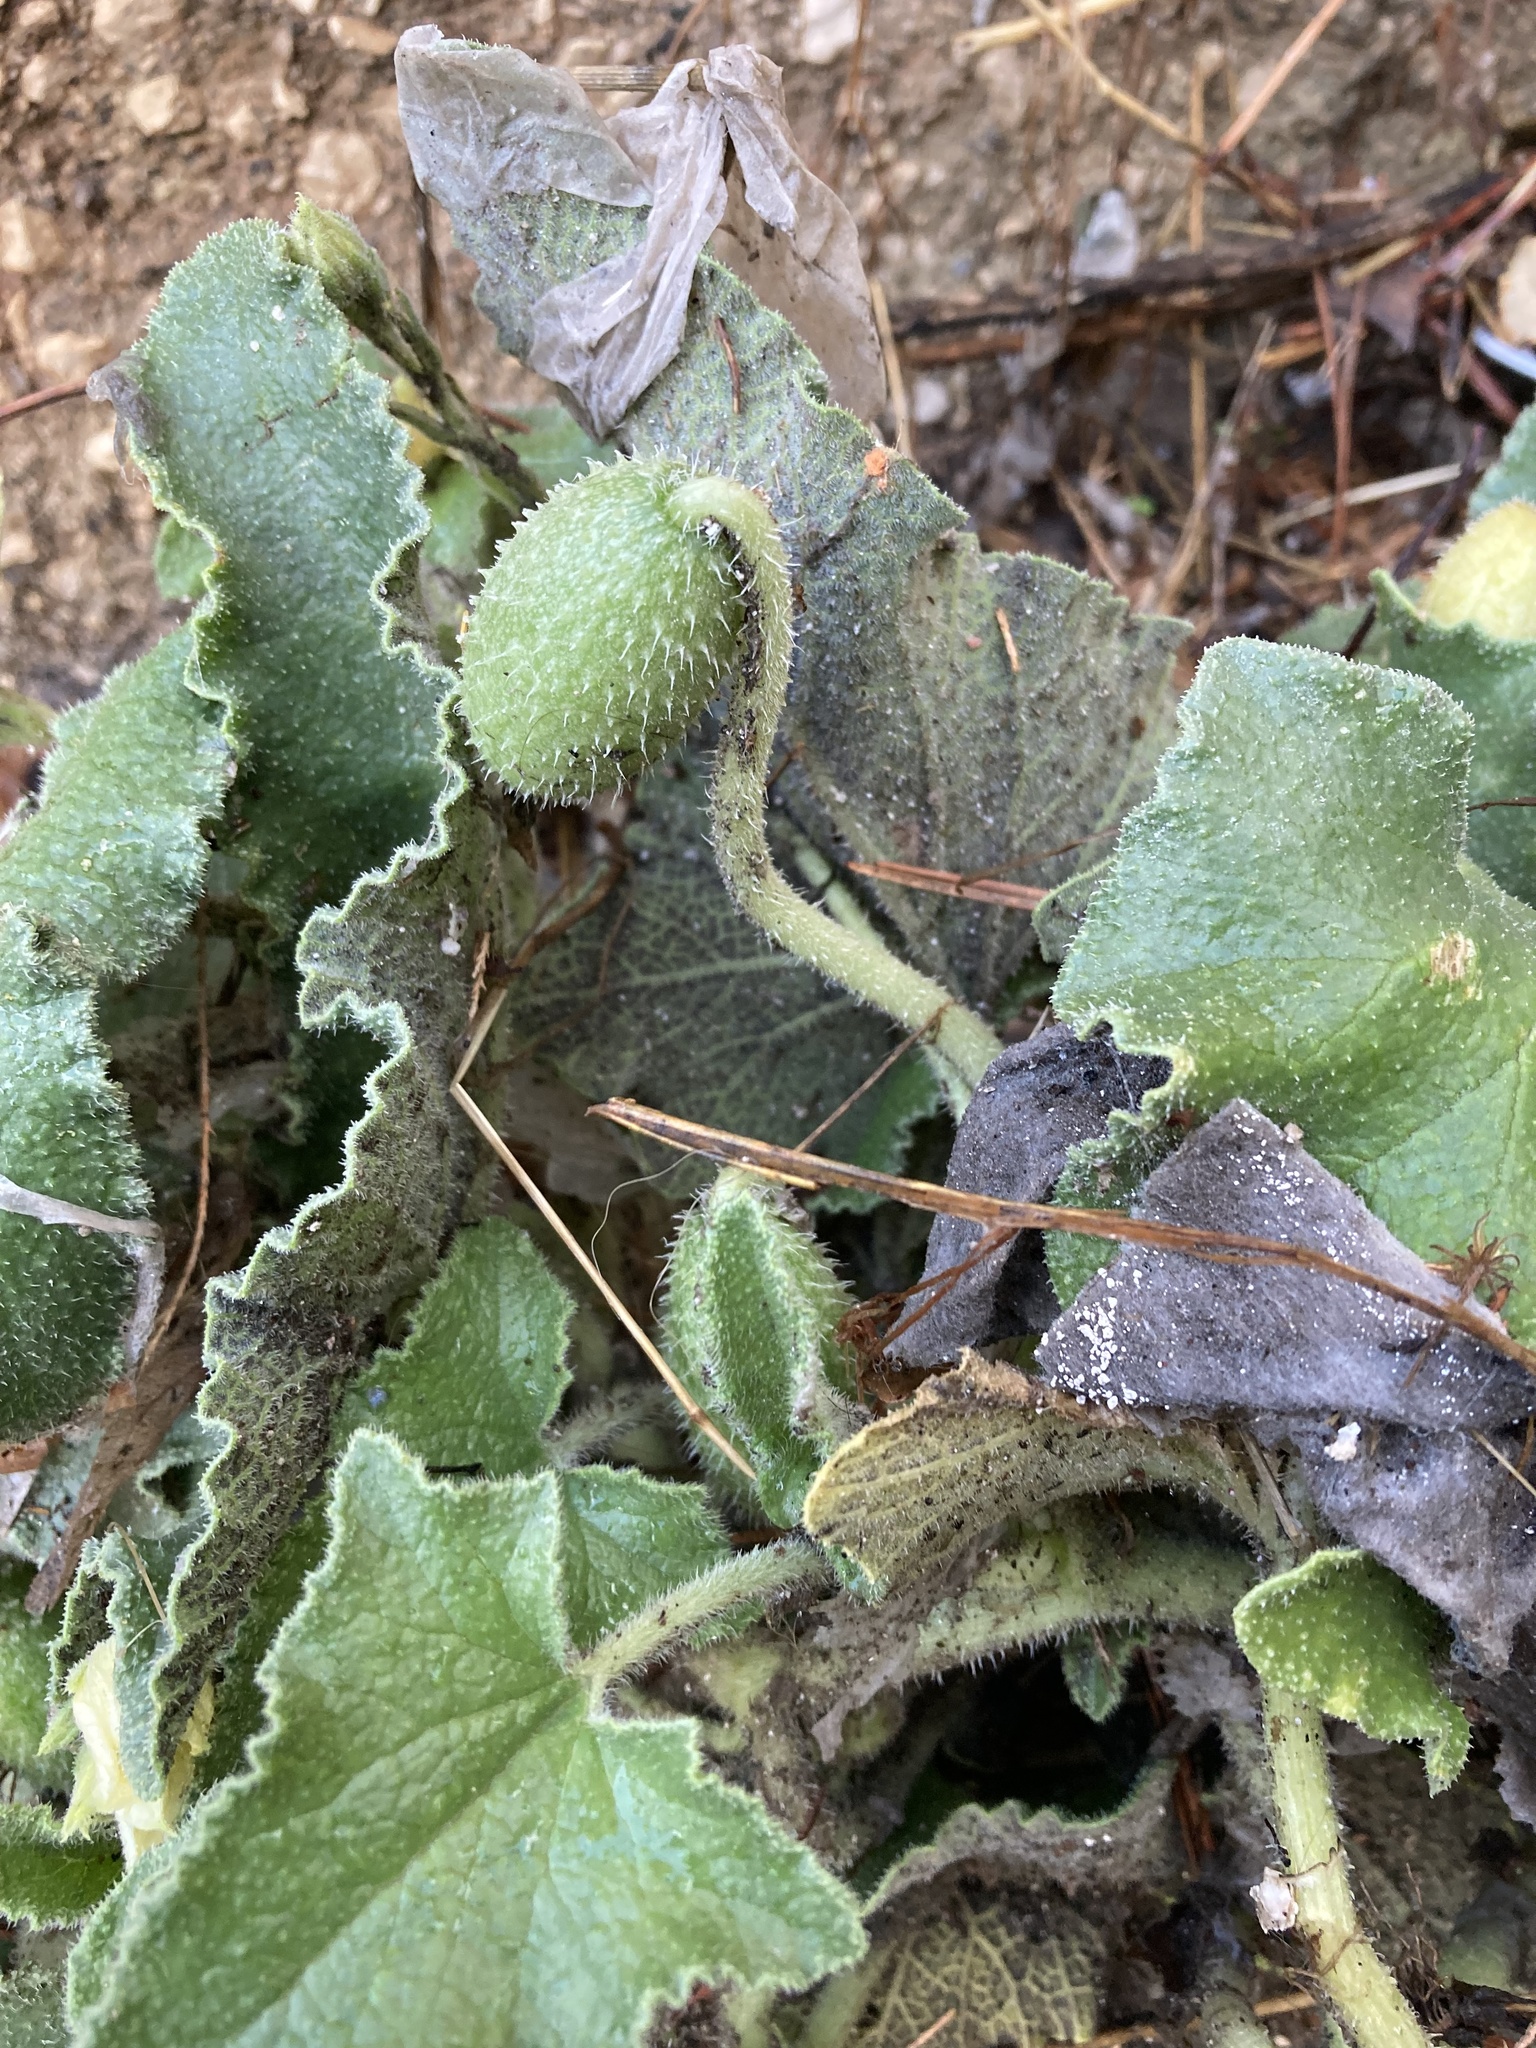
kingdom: Plantae
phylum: Tracheophyta
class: Magnoliopsida
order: Cucurbitales
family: Cucurbitaceae
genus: Ecballium
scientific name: Ecballium elaterium
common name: Squirting cucumber
